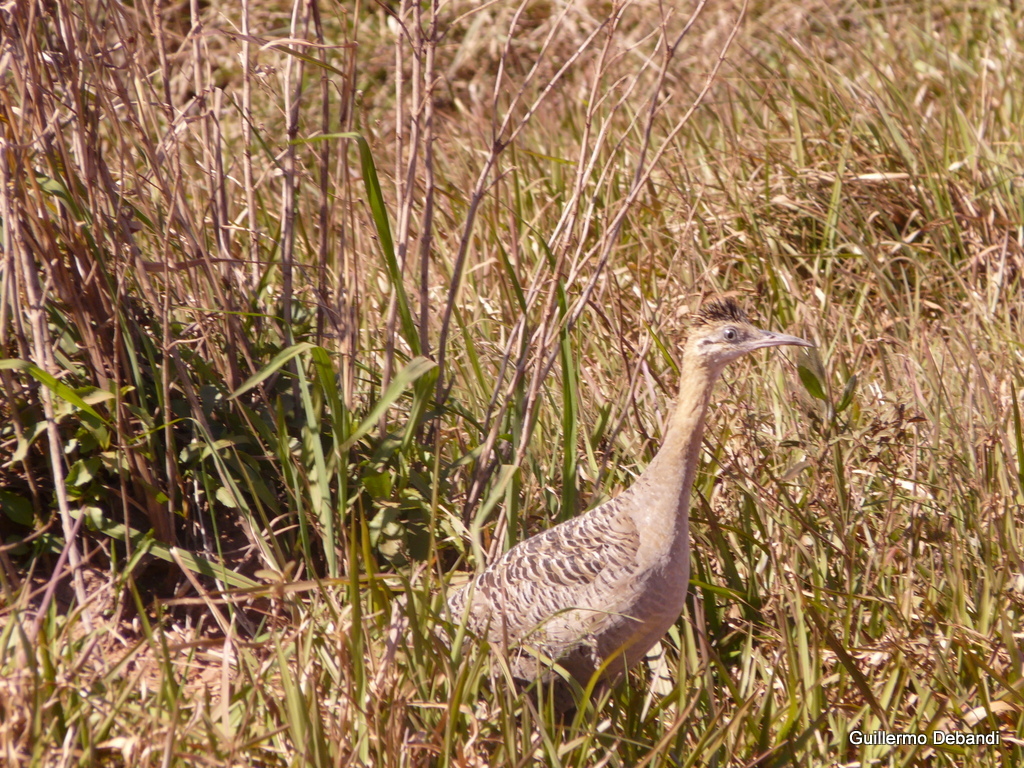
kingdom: Animalia
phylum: Chordata
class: Aves
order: Tinamiformes
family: Tinamidae
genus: Rhynchotus
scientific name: Rhynchotus rufescens
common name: Red-winged tinamou
